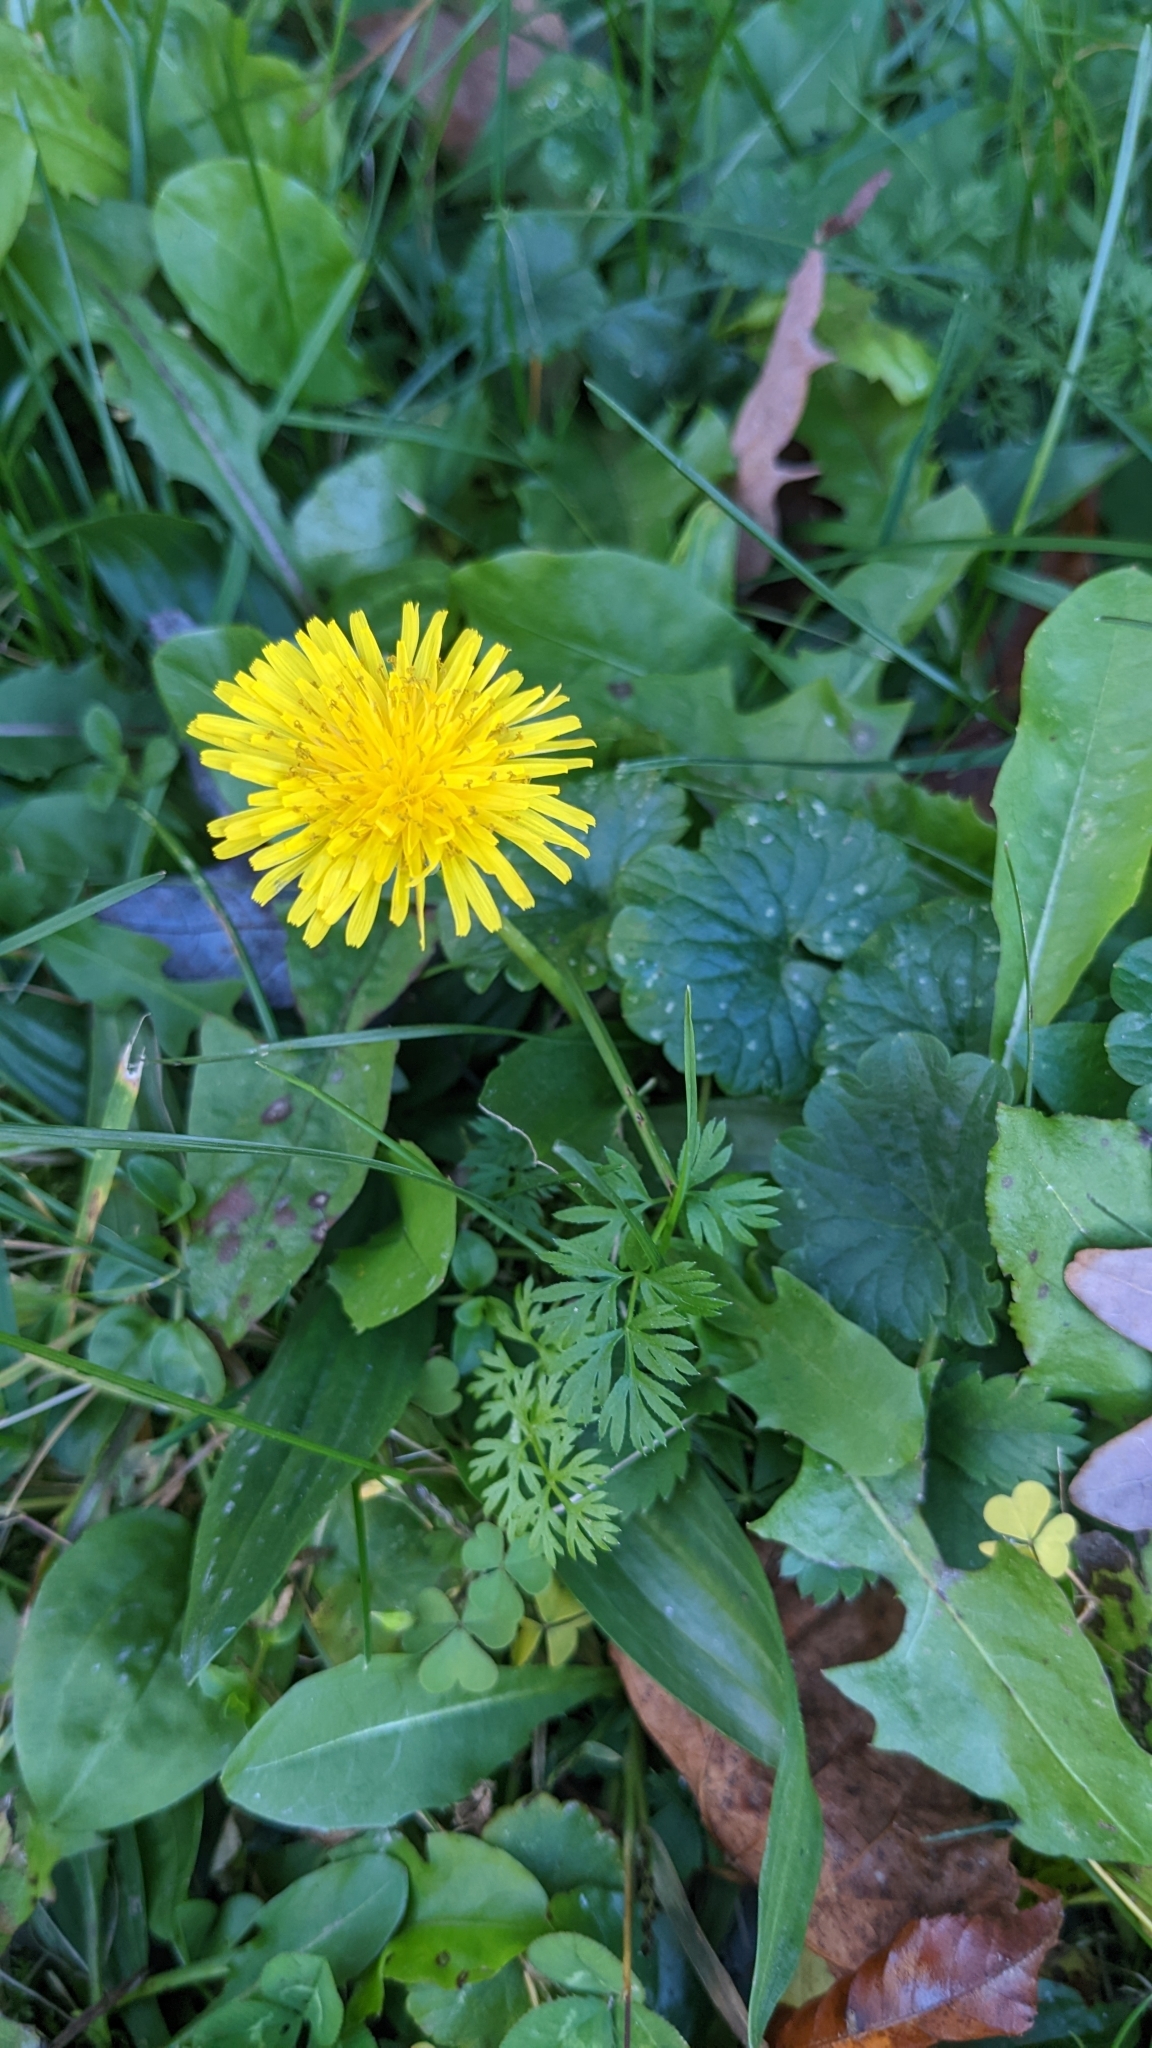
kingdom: Plantae
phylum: Tracheophyta
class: Magnoliopsida
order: Asterales
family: Asteraceae
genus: Taraxacum
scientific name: Taraxacum
